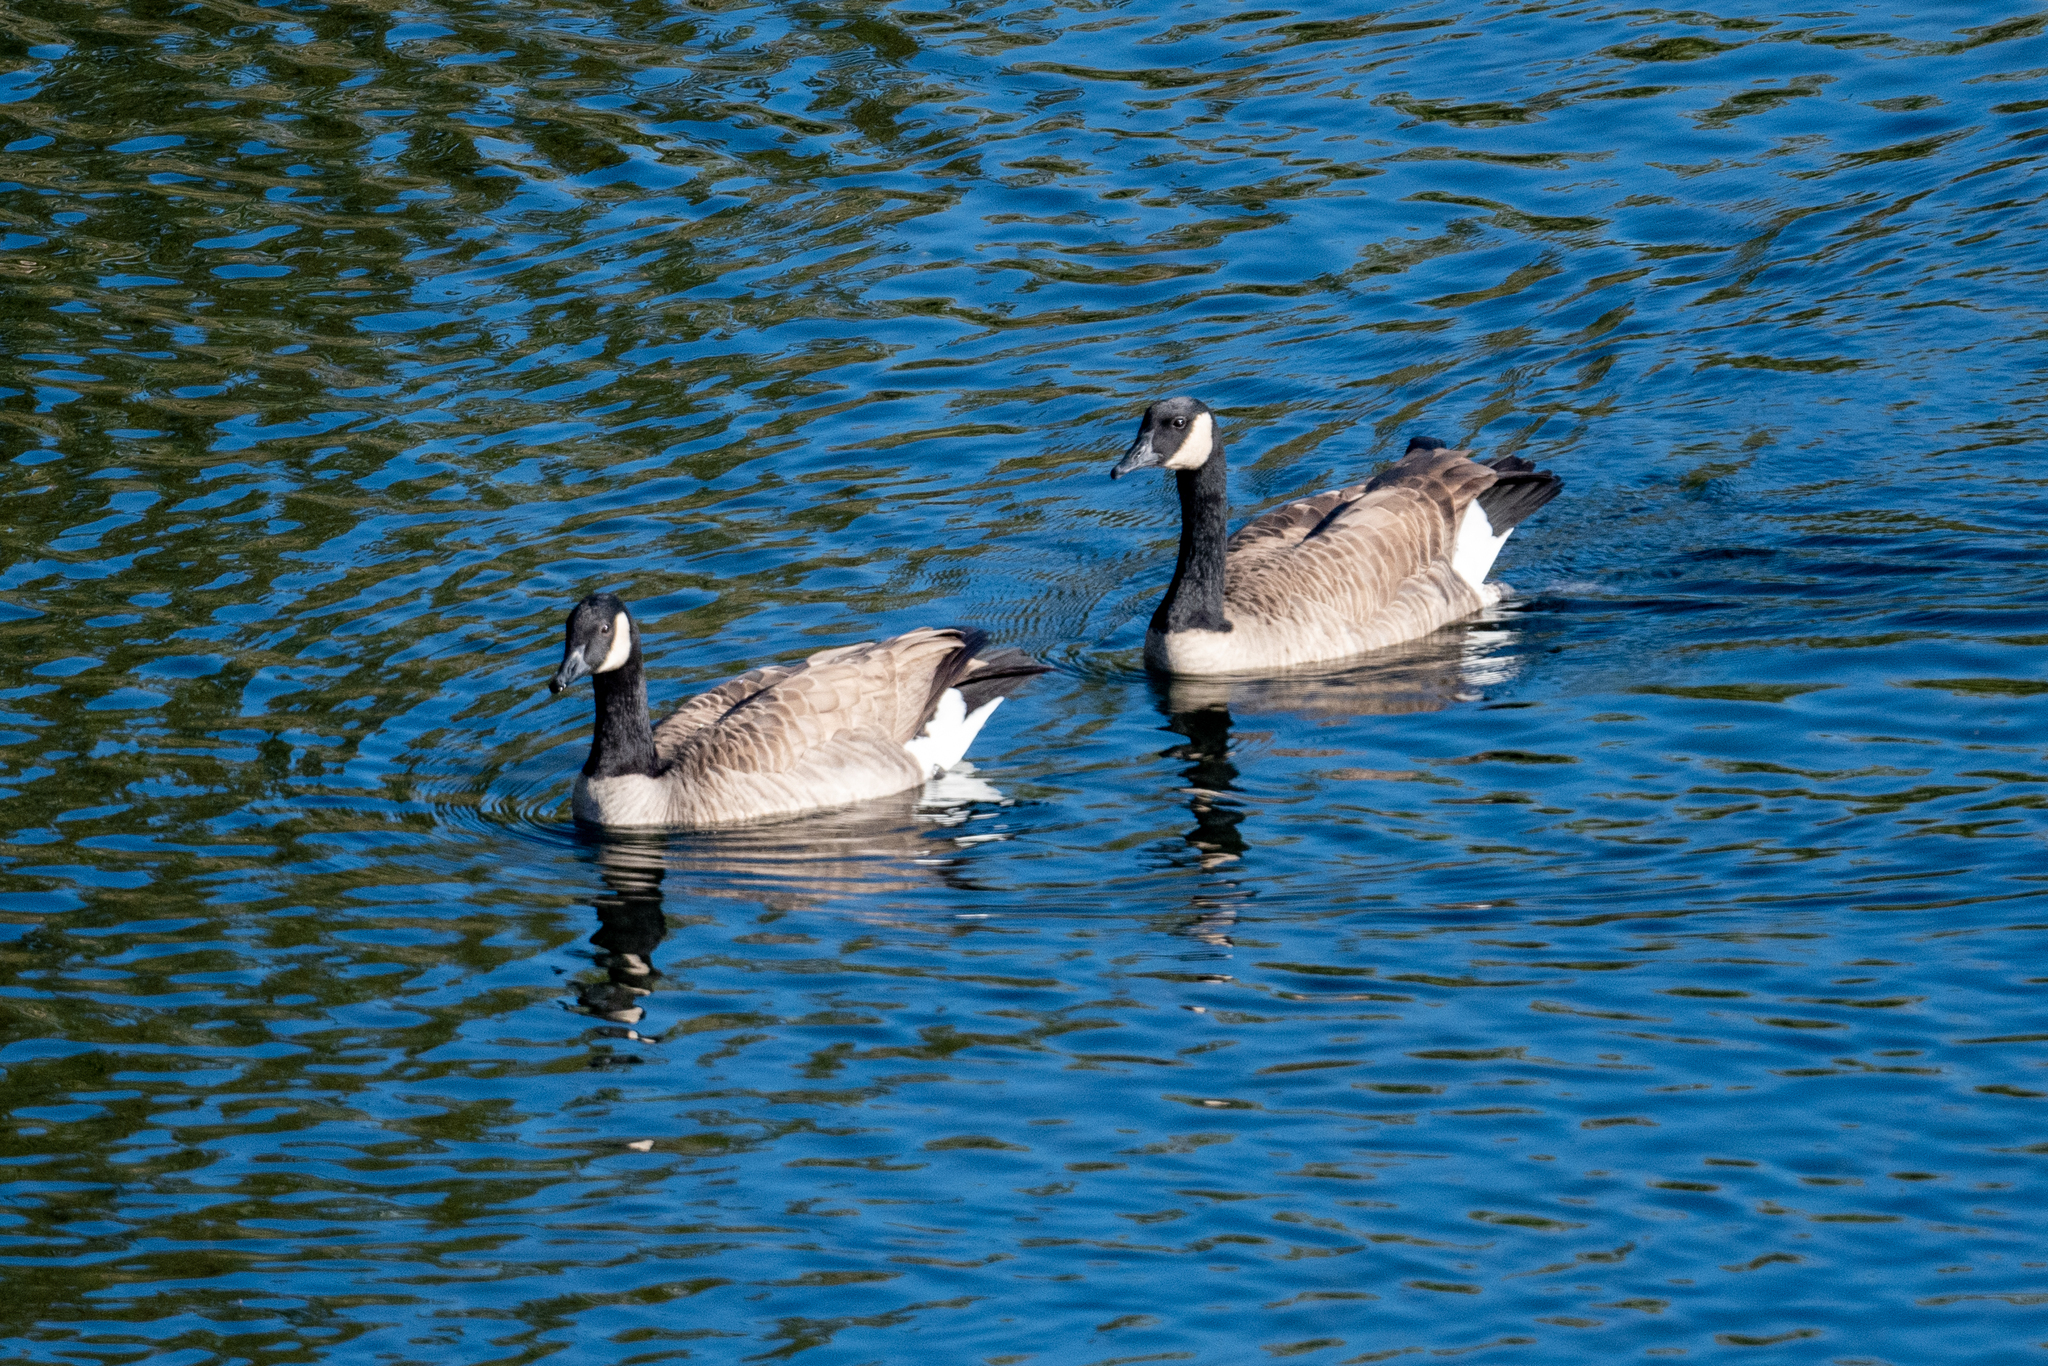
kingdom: Animalia
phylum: Chordata
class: Aves
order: Anseriformes
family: Anatidae
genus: Branta
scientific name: Branta canadensis
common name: Canada goose
